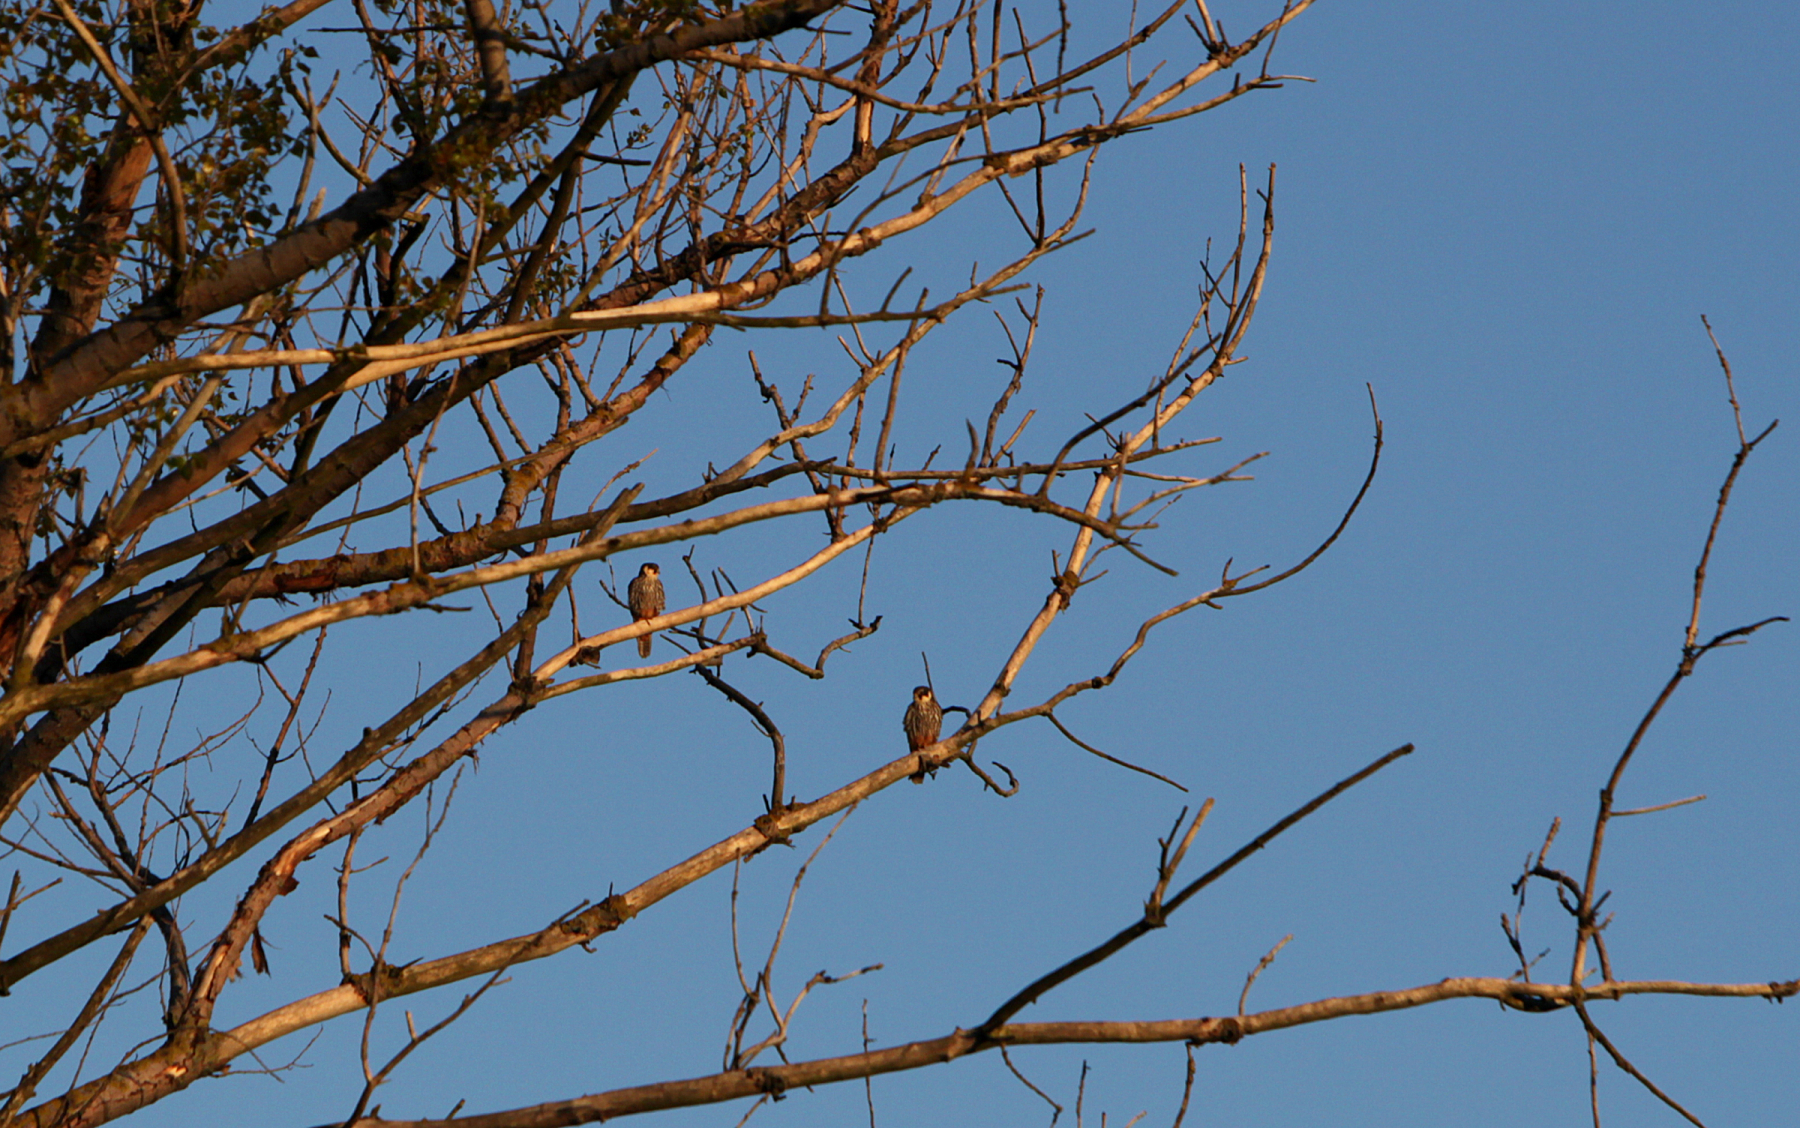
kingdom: Animalia
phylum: Chordata
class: Aves
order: Falconiformes
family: Falconidae
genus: Falco
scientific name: Falco subbuteo
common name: Eurasian hobby
